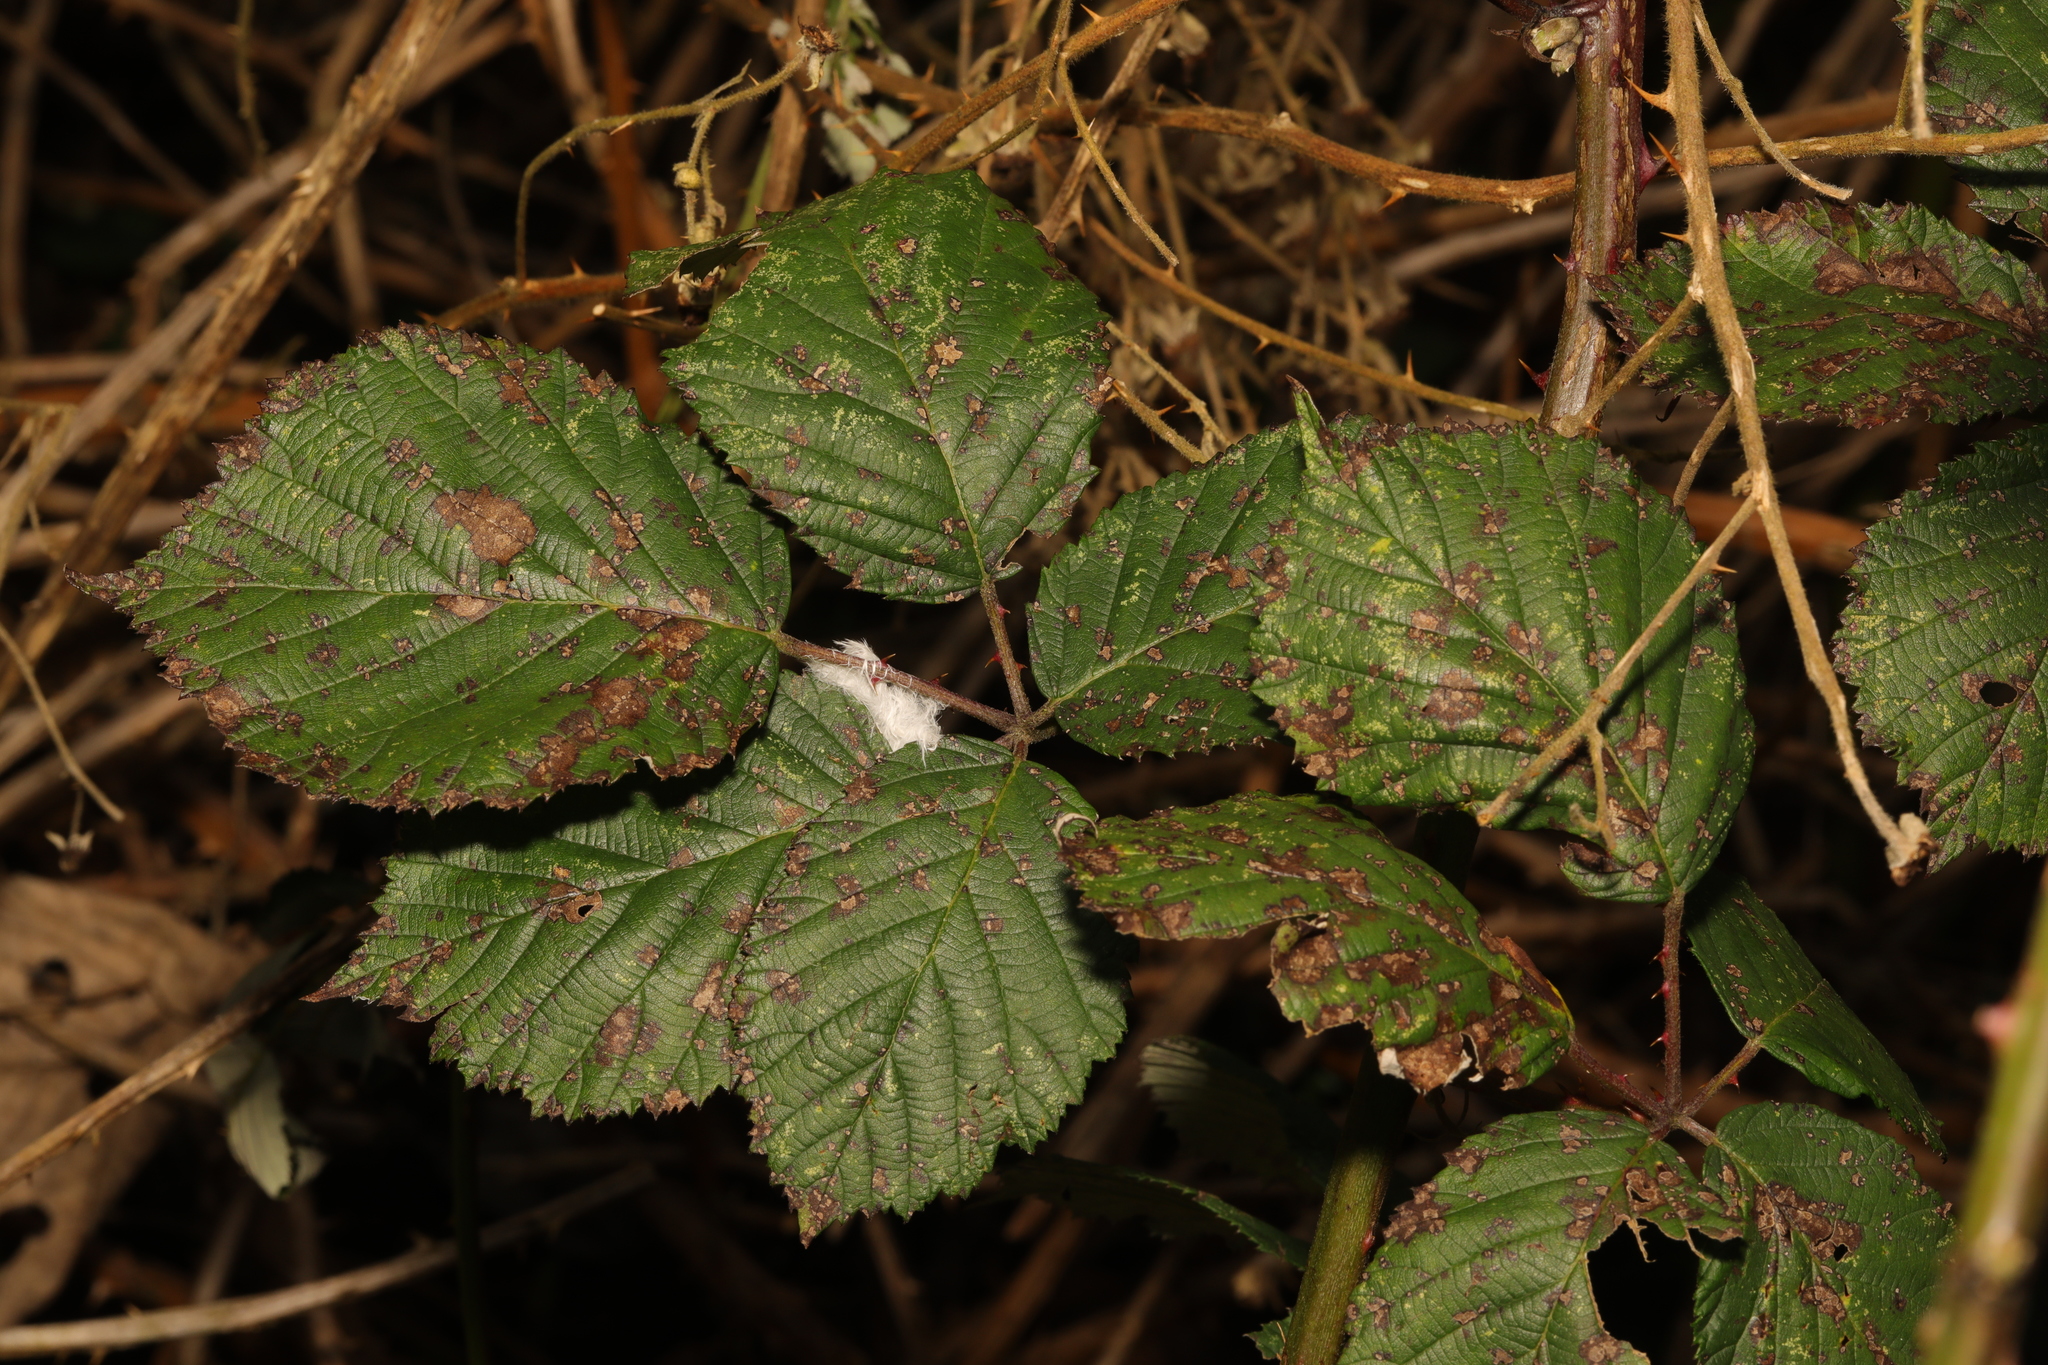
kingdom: Plantae
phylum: Tracheophyta
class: Magnoliopsida
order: Rosales
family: Rosaceae
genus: Rubus
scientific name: Rubus armeniacus
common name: Himalayan blackberry
